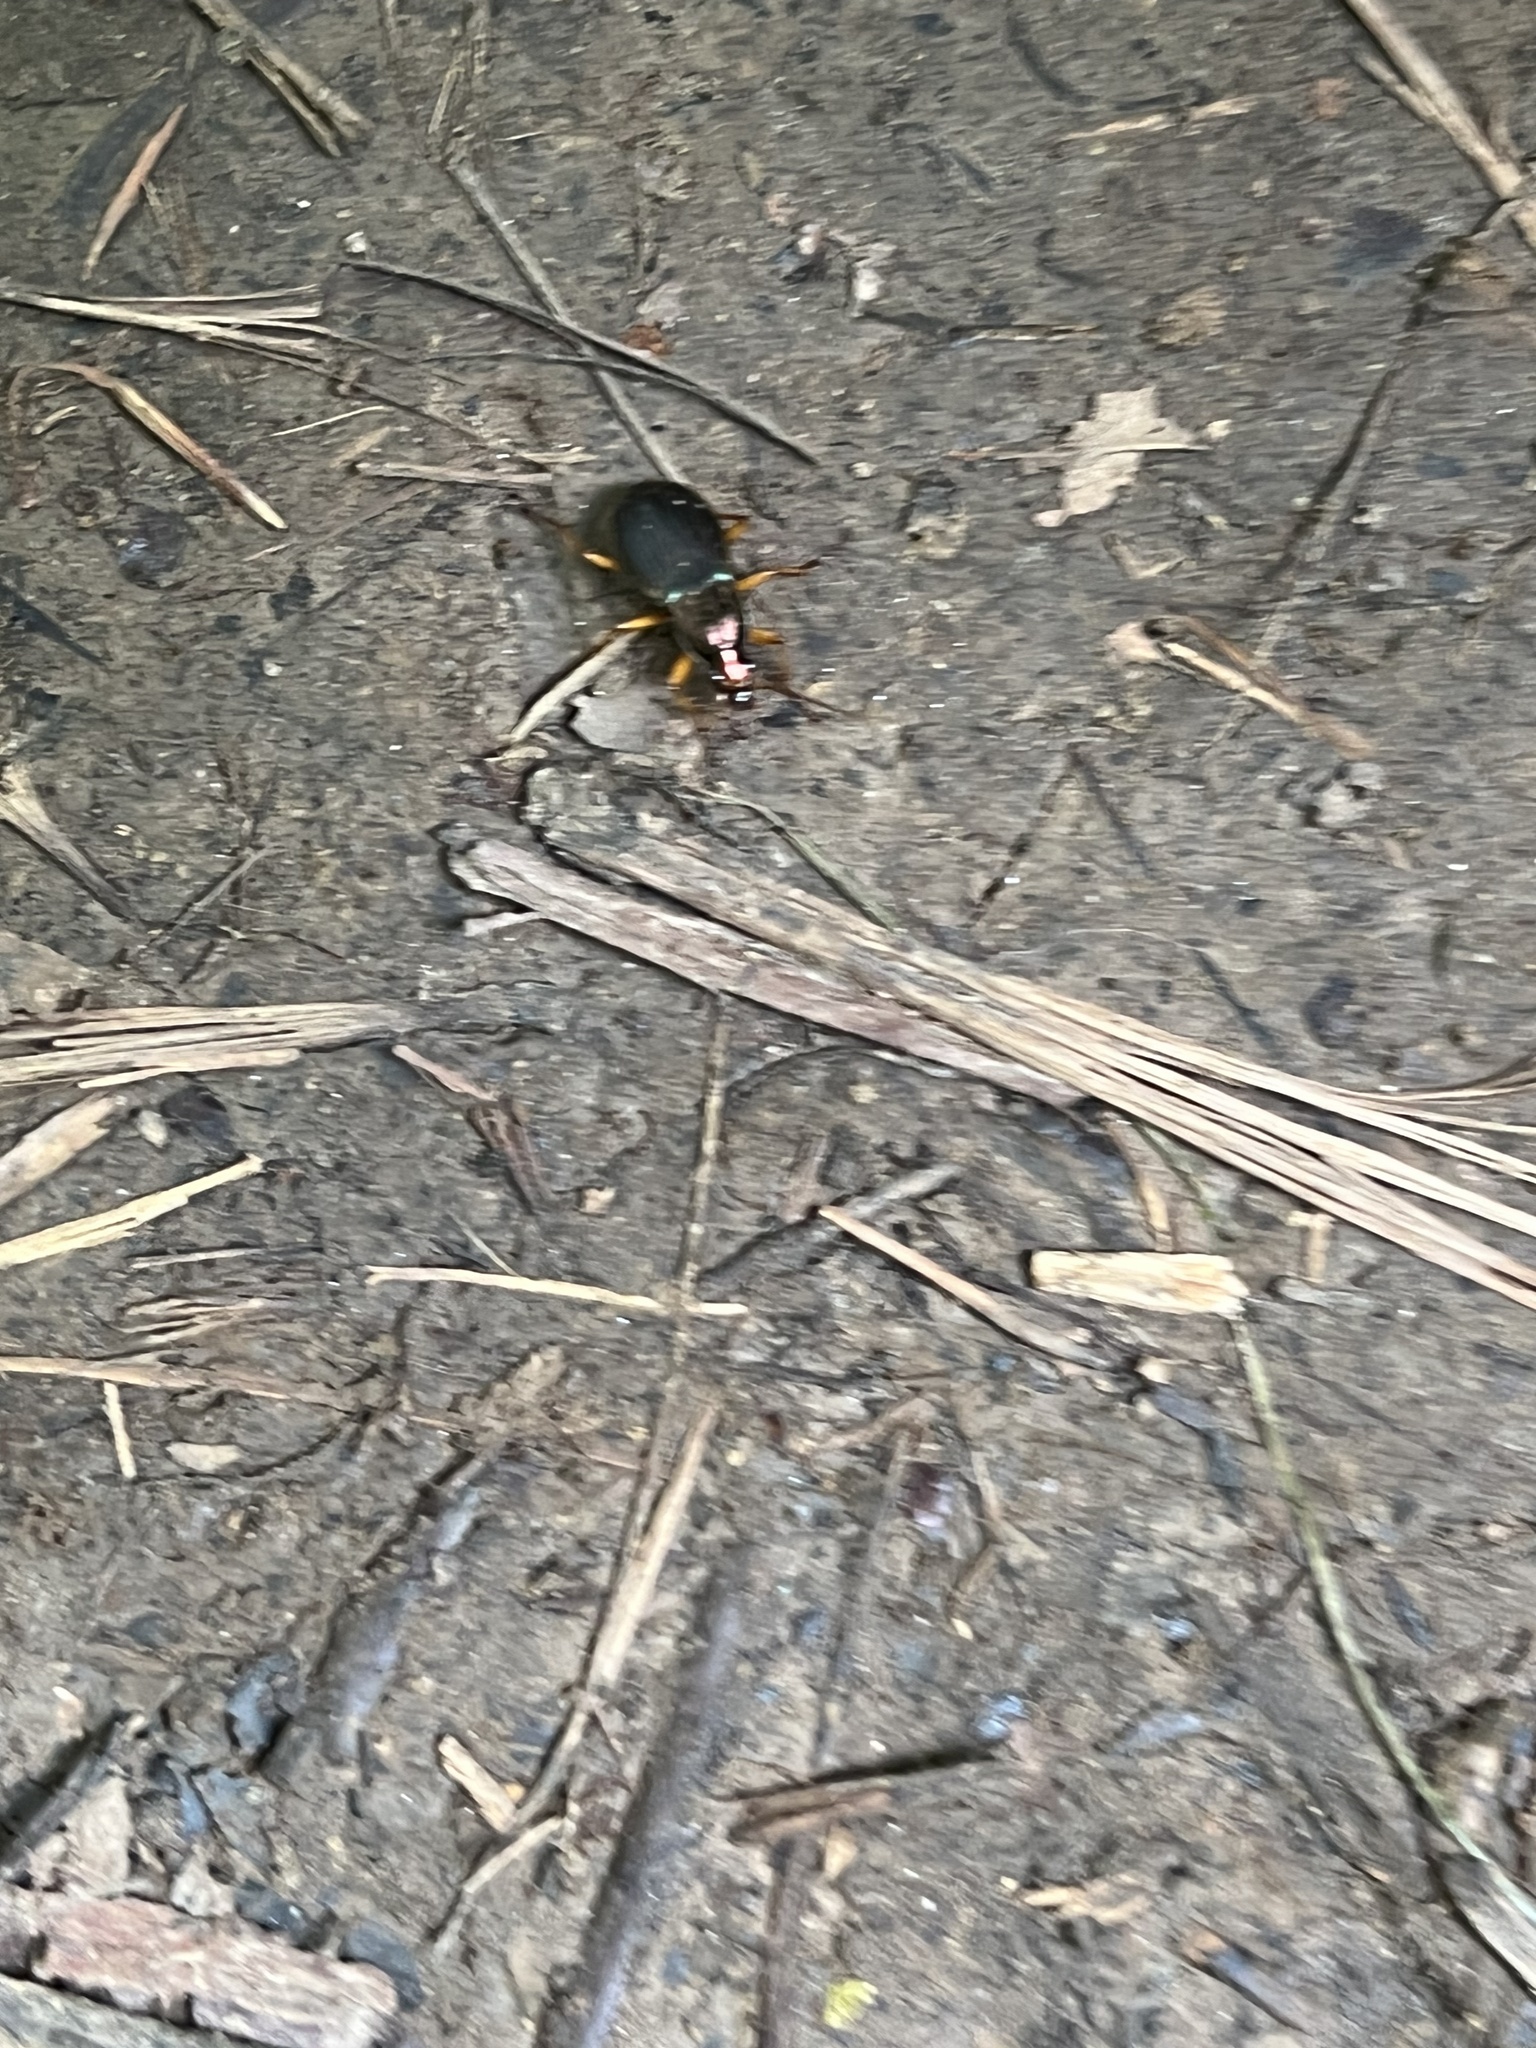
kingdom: Animalia
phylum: Arthropoda
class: Insecta
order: Coleoptera
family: Carabidae
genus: Chlaenius
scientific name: Chlaenius aestivus
